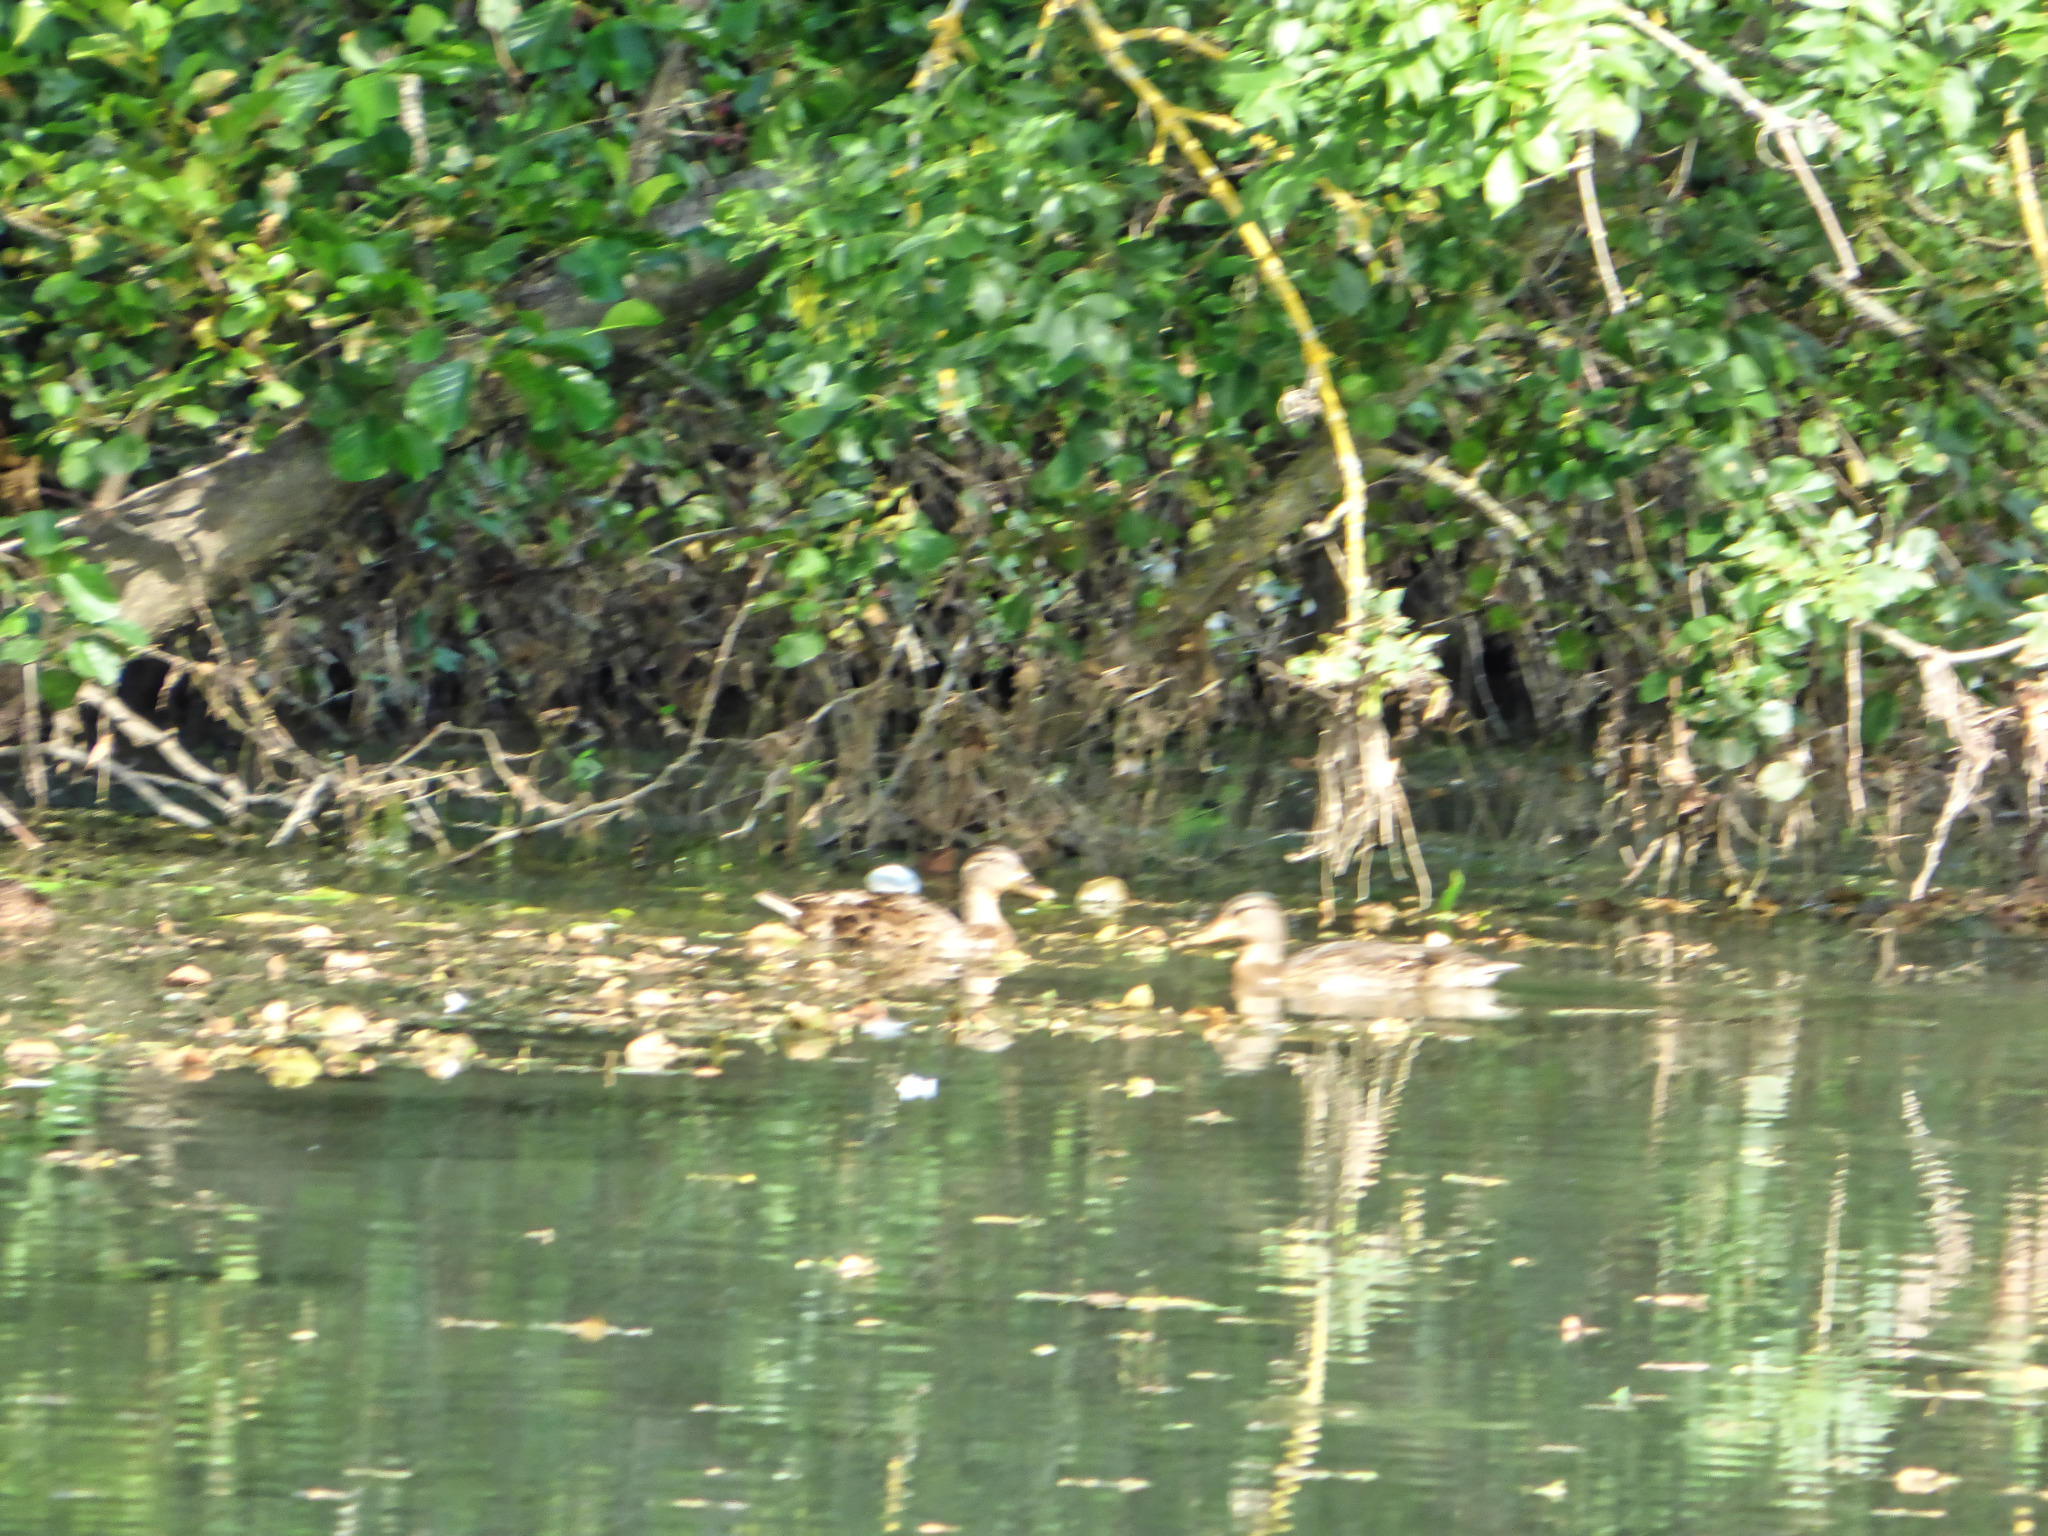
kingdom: Animalia
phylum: Chordata
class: Aves
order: Anseriformes
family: Anatidae
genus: Anas
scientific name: Anas platyrhynchos
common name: Mallard
